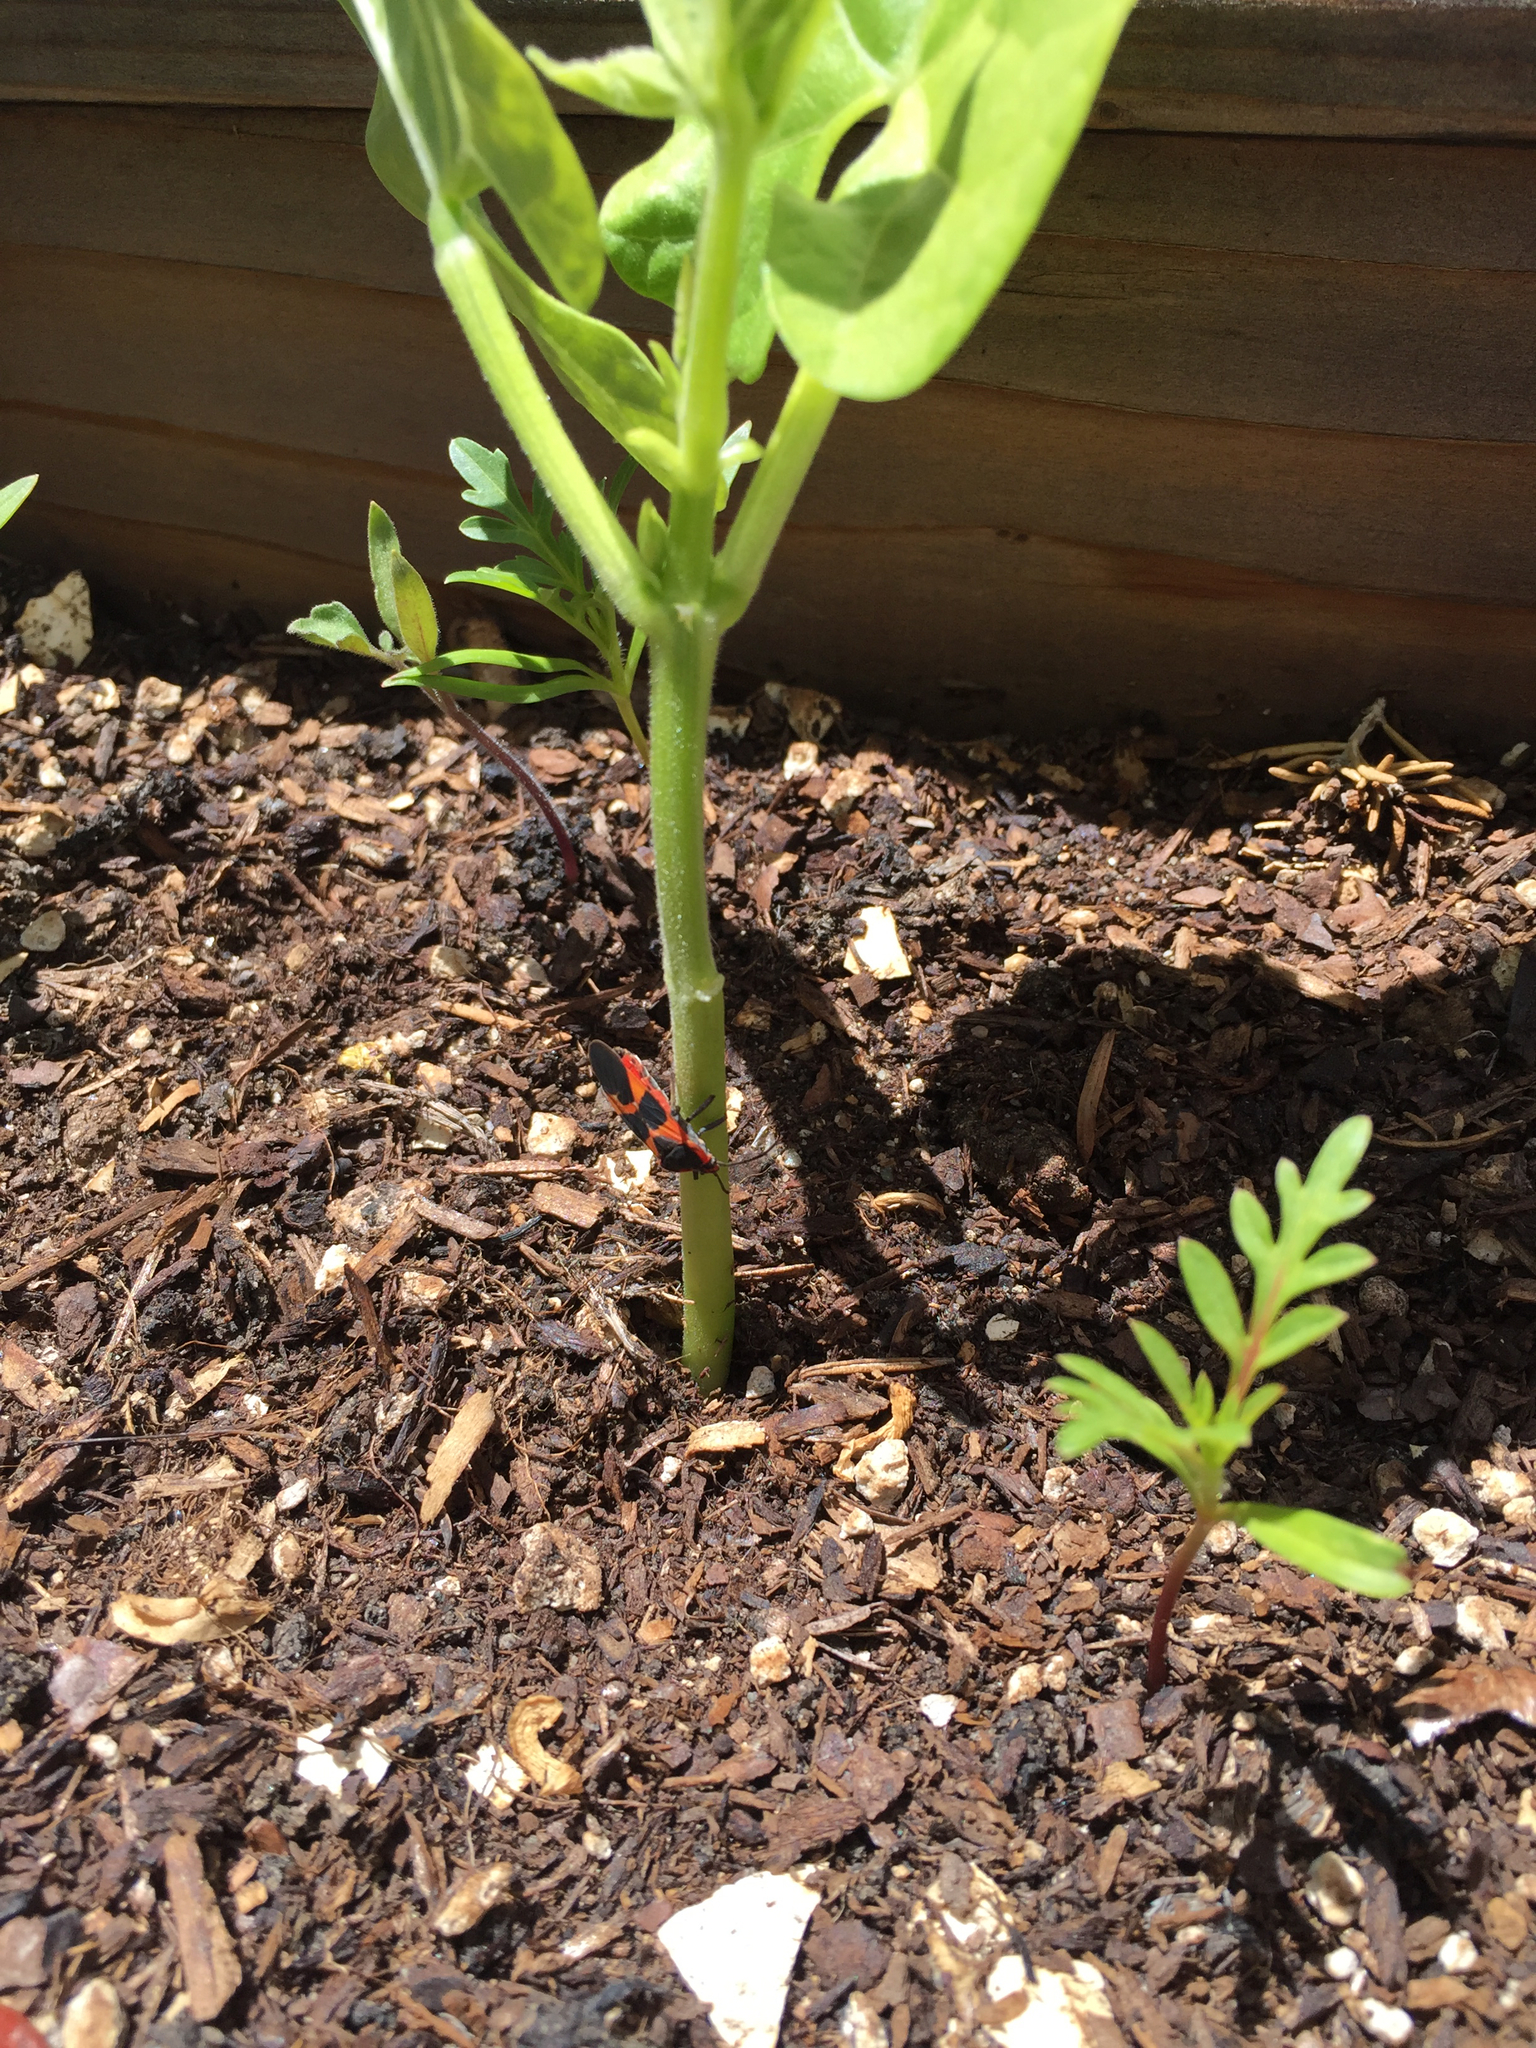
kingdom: Animalia
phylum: Arthropoda
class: Insecta
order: Hemiptera
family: Lygaeidae
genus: Oncopeltus
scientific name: Oncopeltus fasciatus
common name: Large milkweed bug
